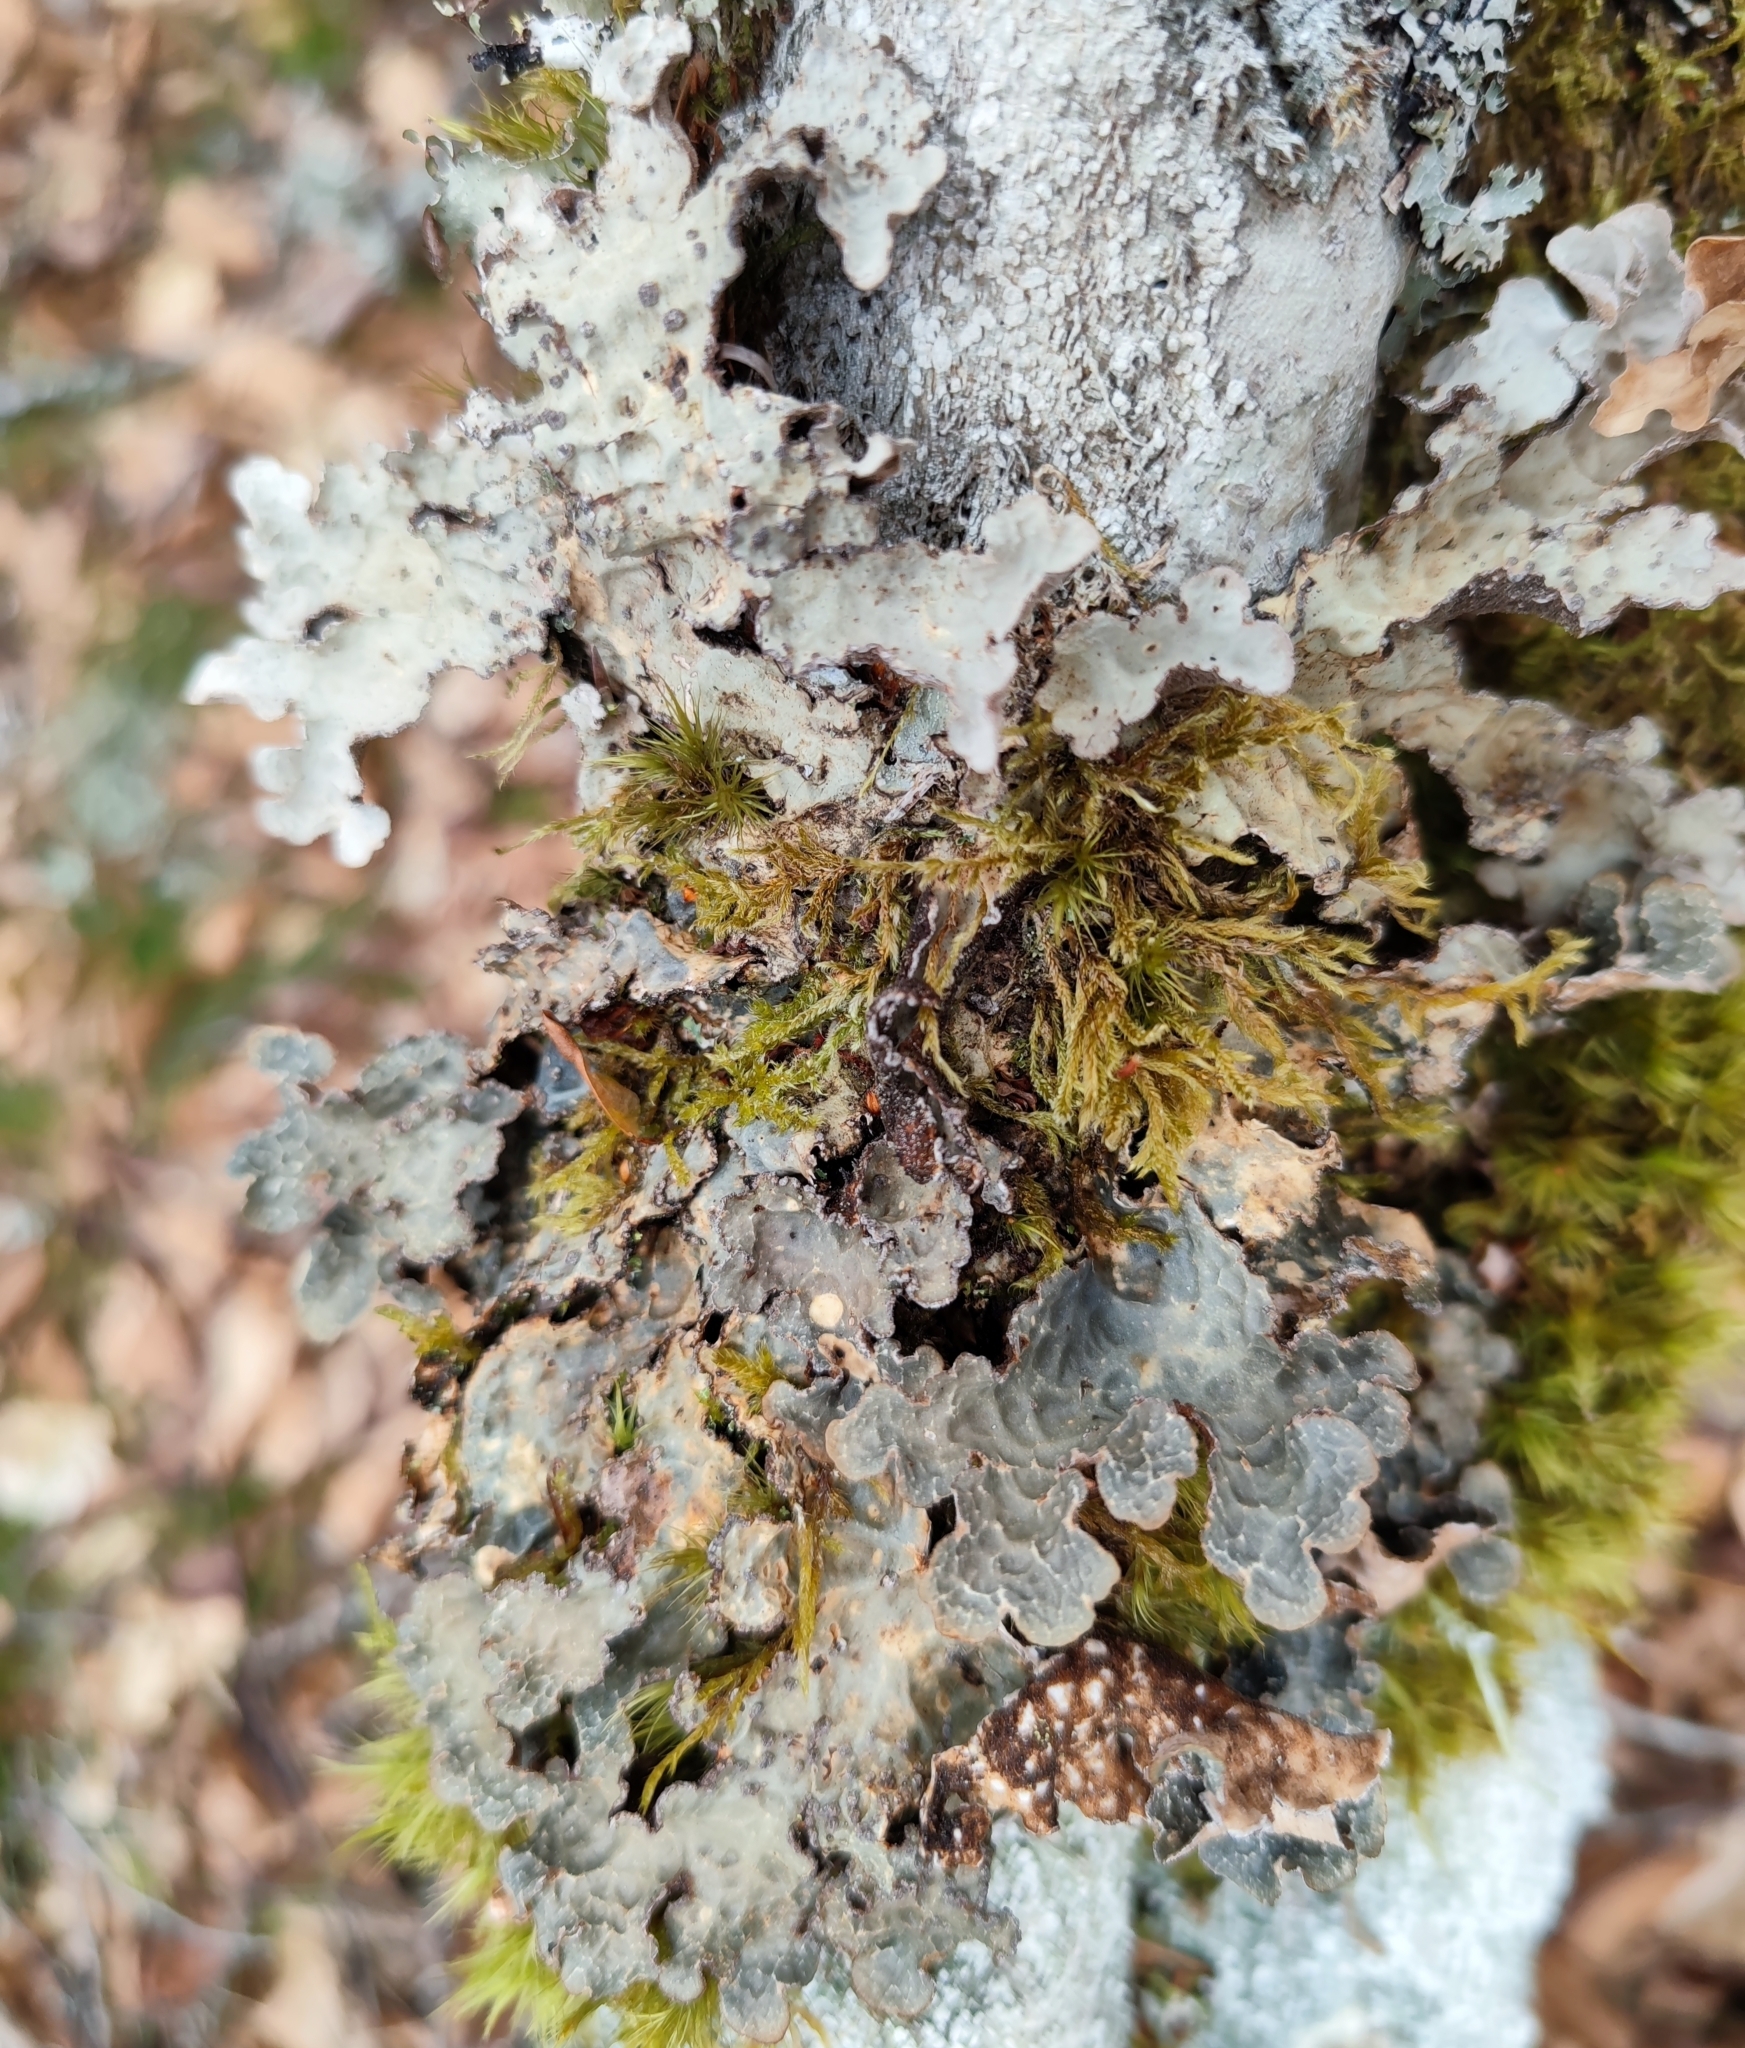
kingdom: Fungi
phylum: Ascomycota
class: Lecanoromycetes
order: Peltigerales
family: Lobariaceae
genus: Lobarina
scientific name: Lobarina scrobiculata
